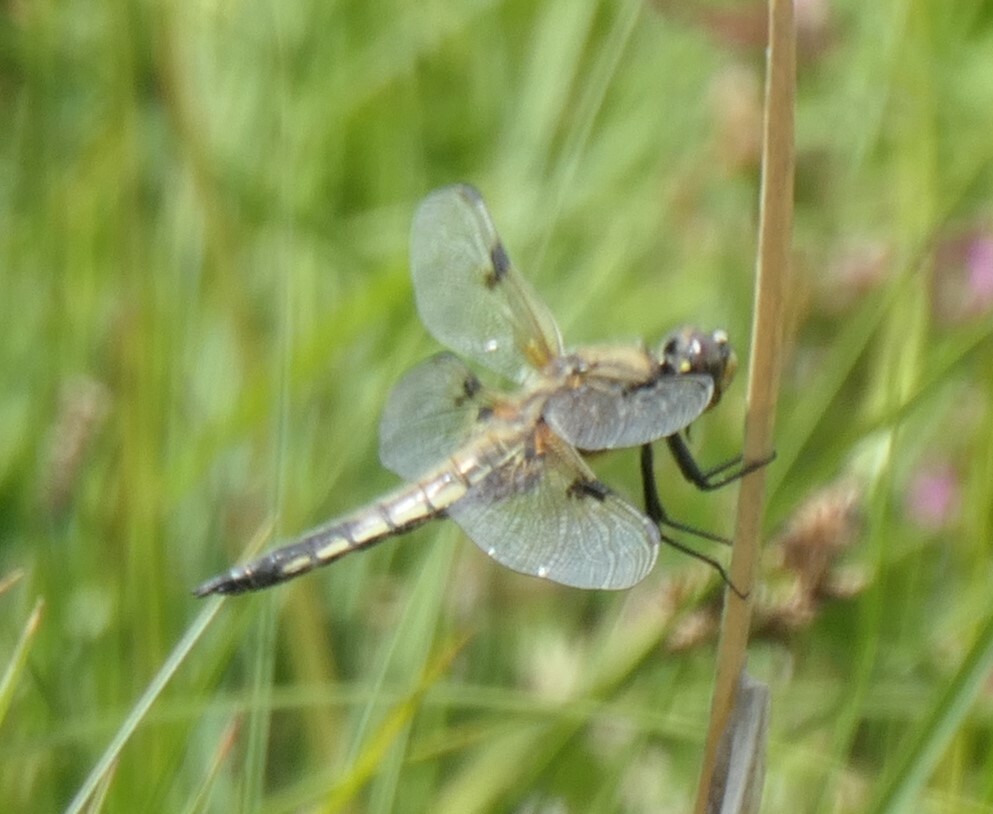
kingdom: Animalia
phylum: Arthropoda
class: Insecta
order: Odonata
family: Libellulidae
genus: Libellula
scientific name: Libellula quadrimaculata
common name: Four-spotted chaser
